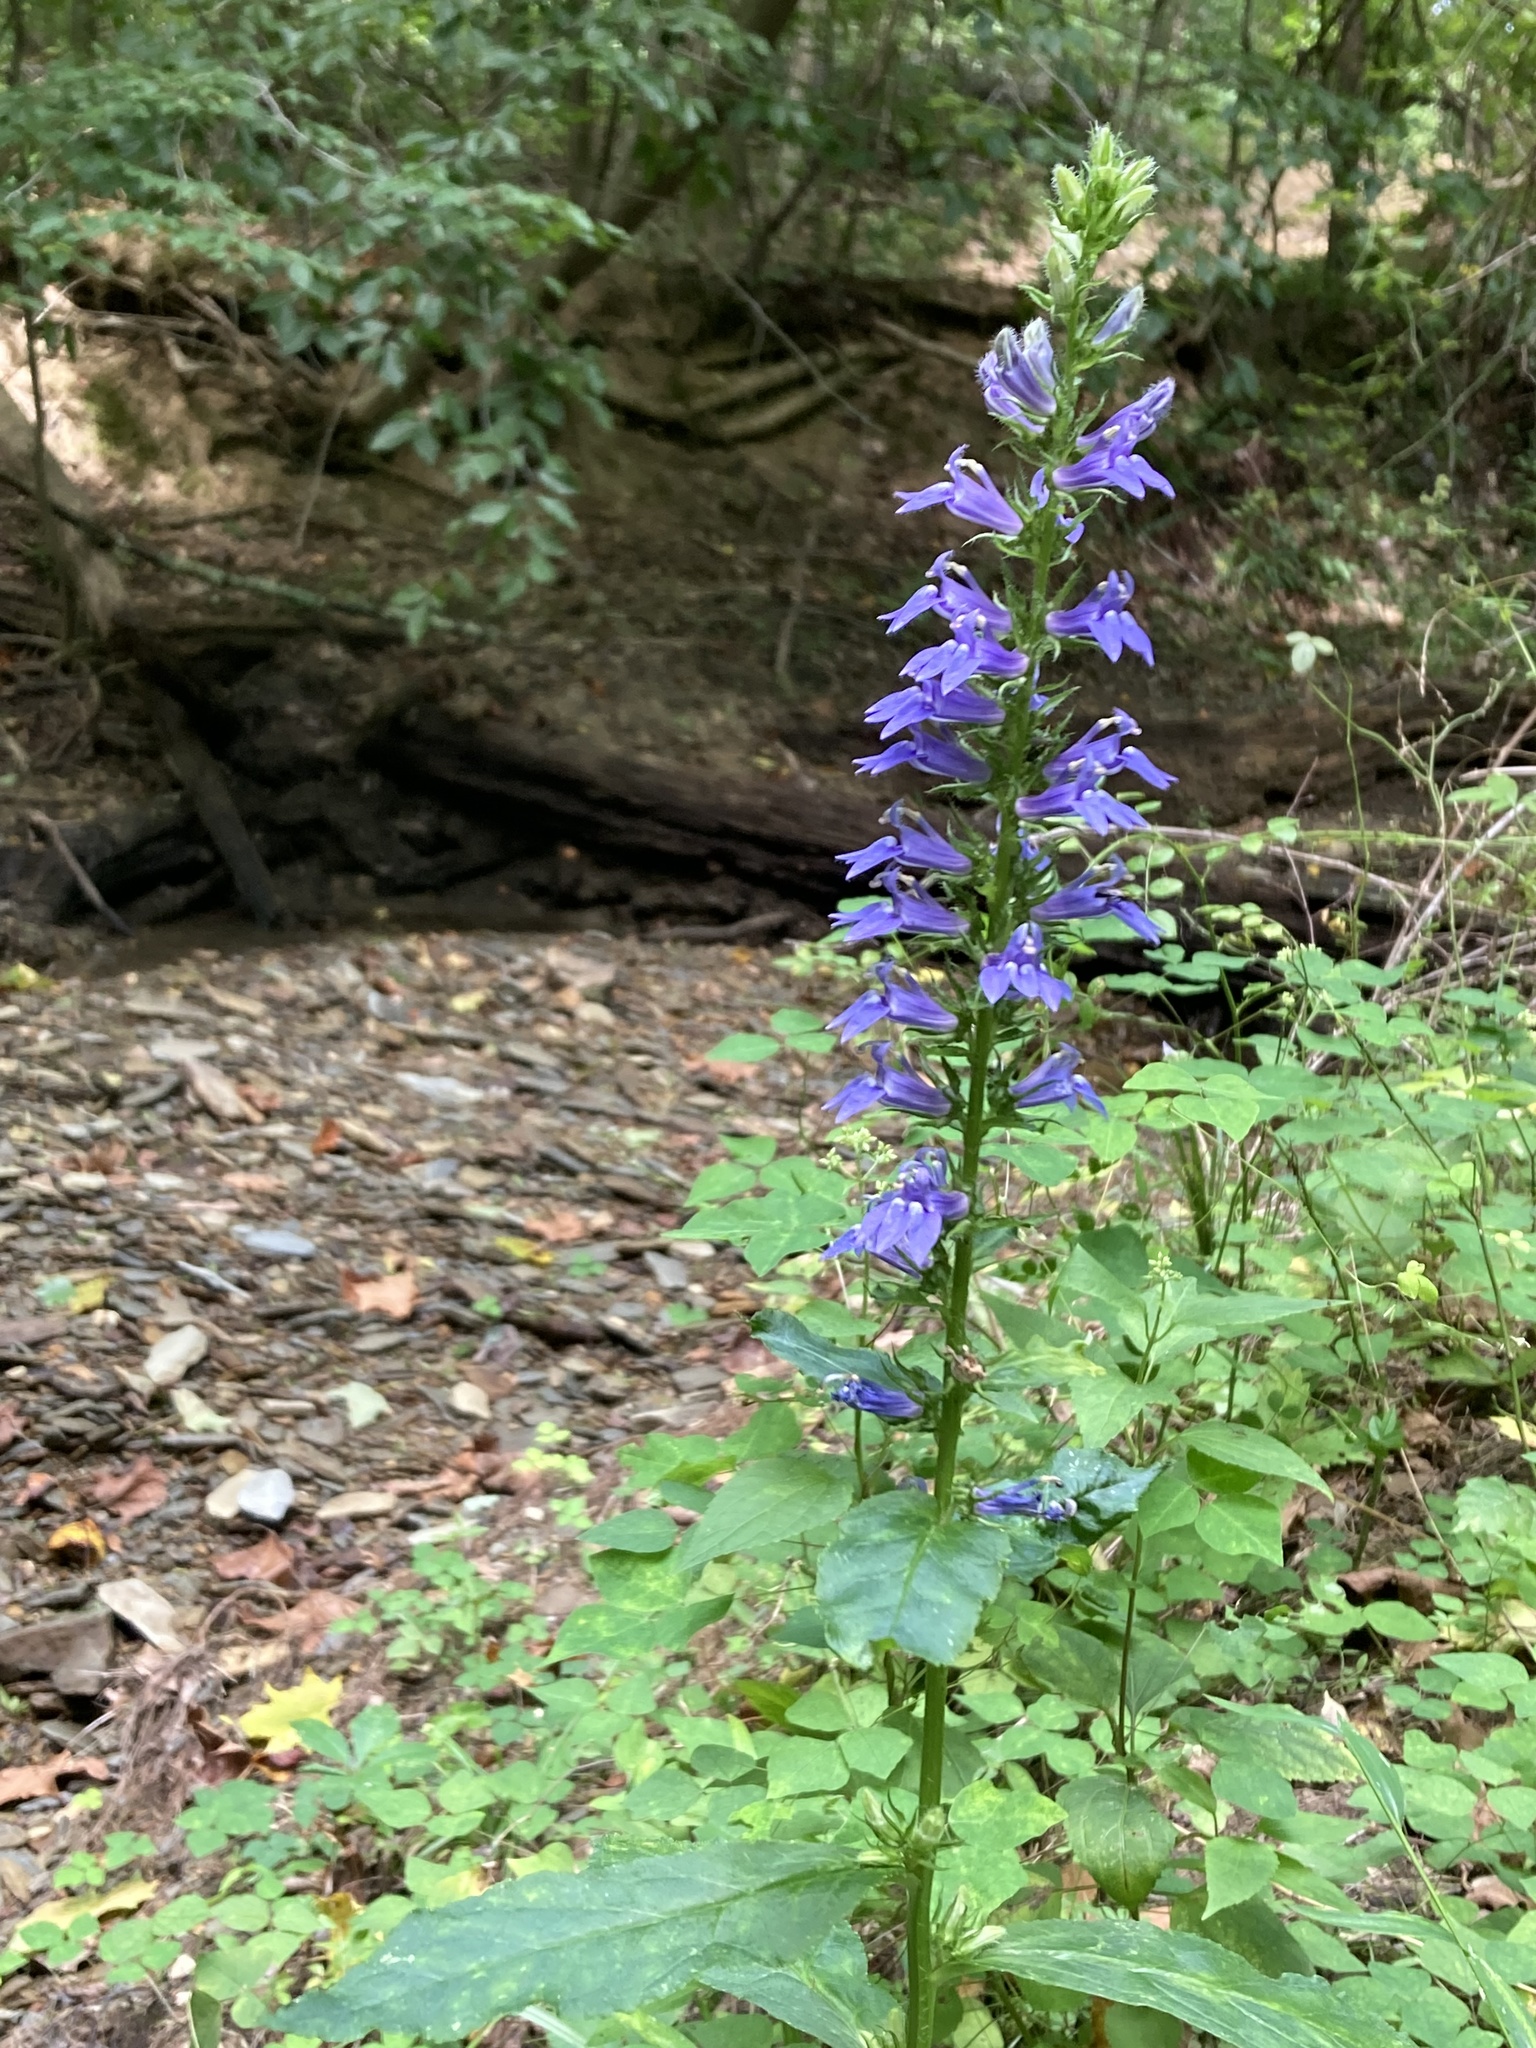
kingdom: Plantae
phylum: Tracheophyta
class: Magnoliopsida
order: Asterales
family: Campanulaceae
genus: Lobelia
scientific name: Lobelia siphilitica
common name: Great lobelia
